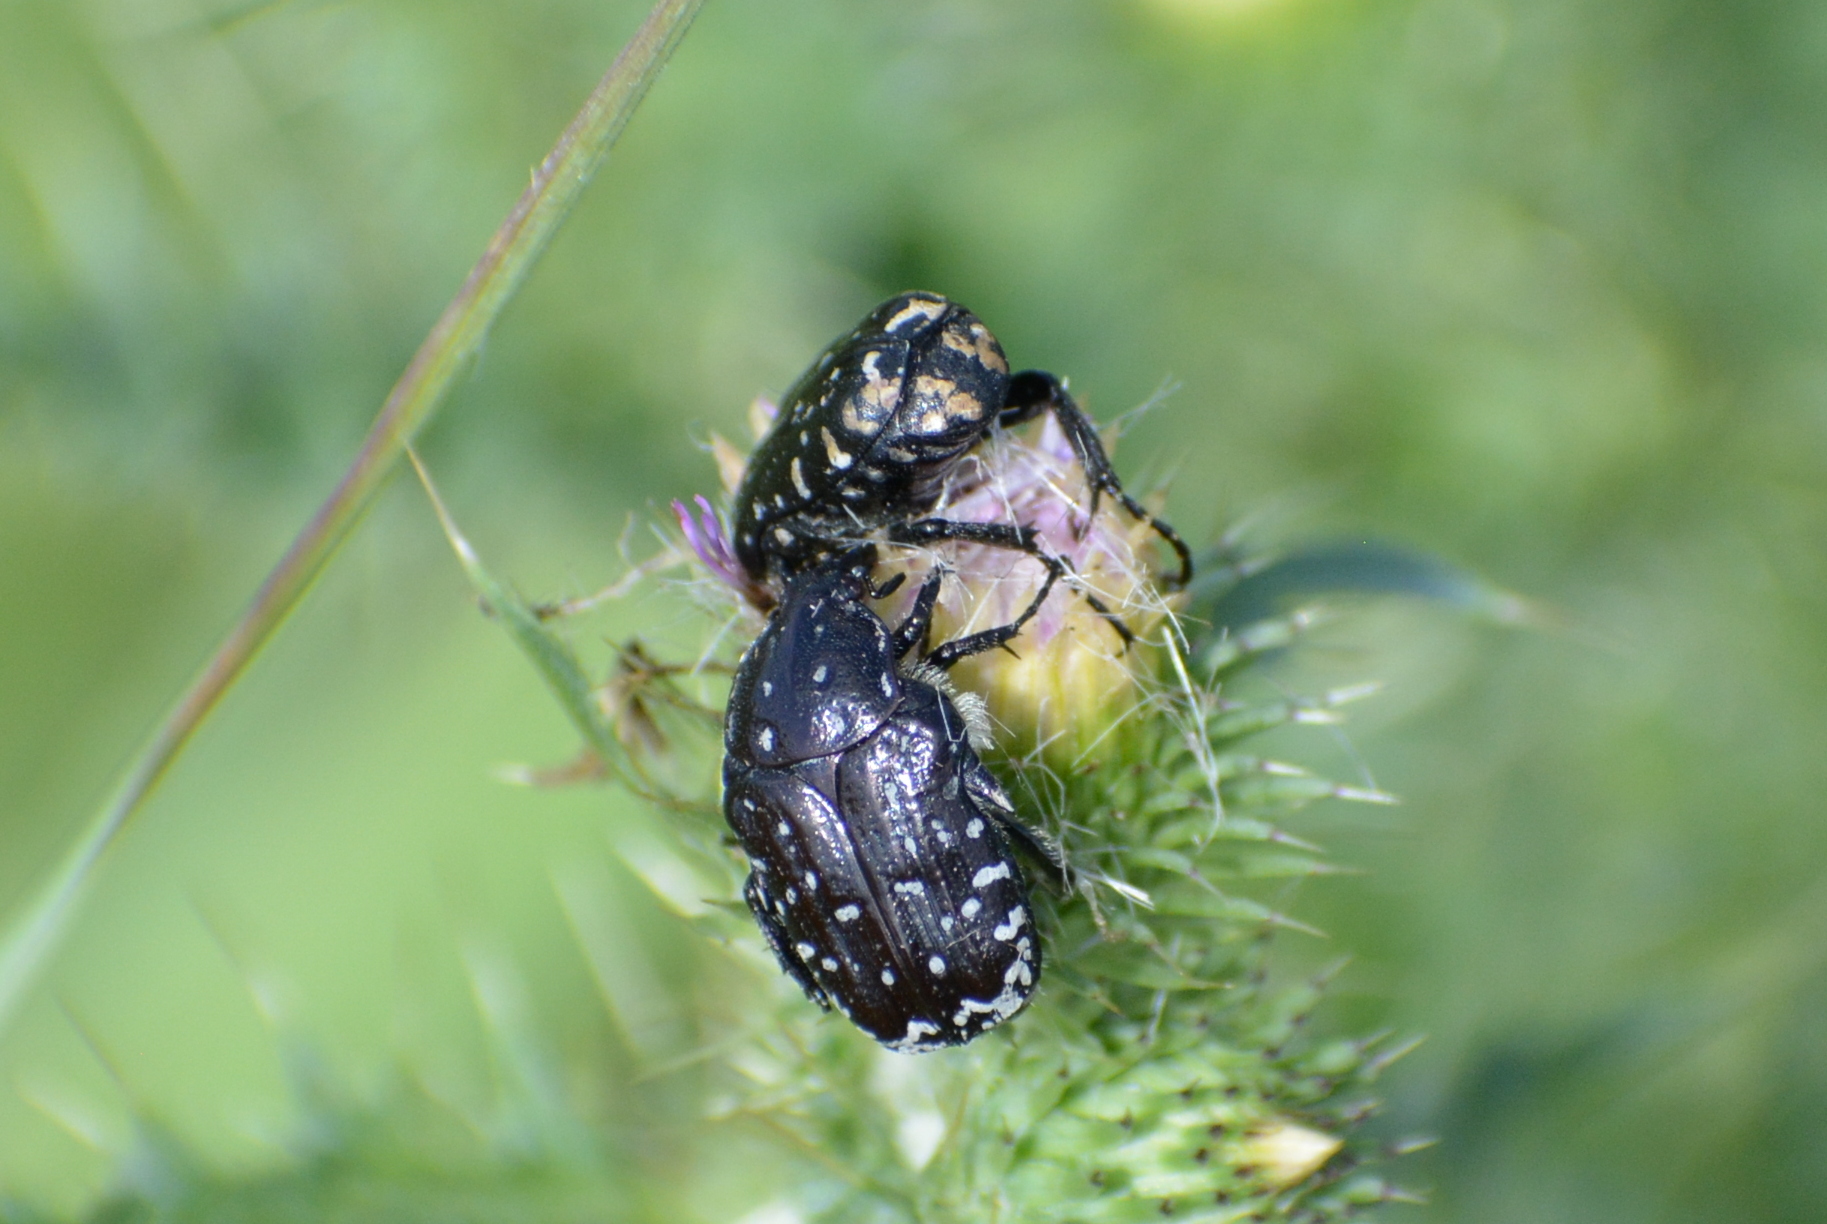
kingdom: Animalia
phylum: Arthropoda
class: Insecta
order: Coleoptera
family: Scarabaeidae
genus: Oxythyrea
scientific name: Oxythyrea funesta
